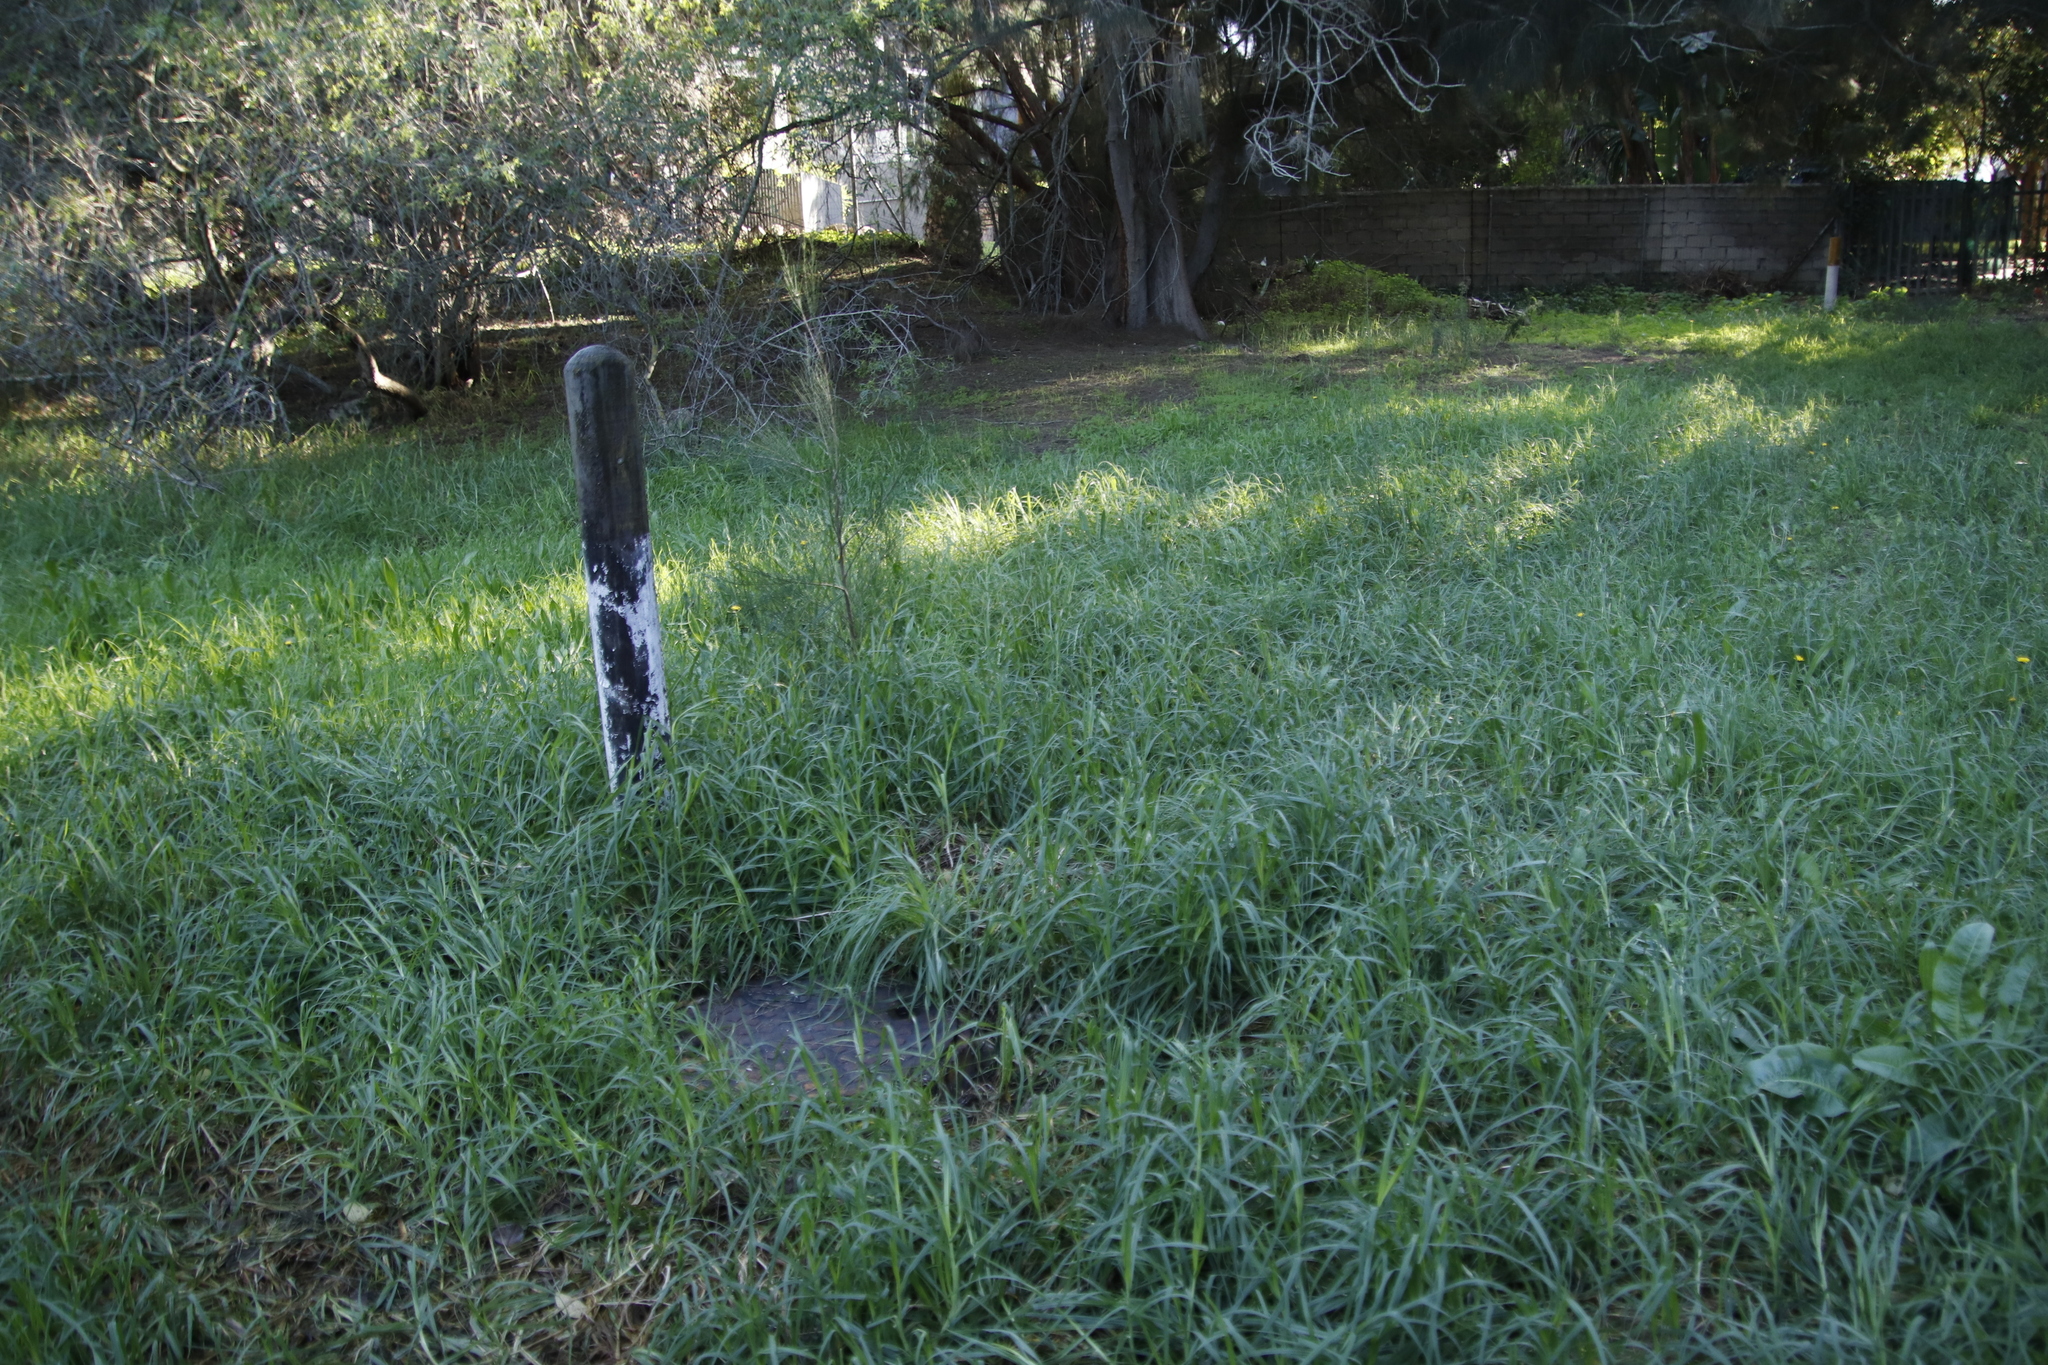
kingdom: Plantae
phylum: Tracheophyta
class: Magnoliopsida
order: Fagales
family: Casuarinaceae
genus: Casuarina
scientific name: Casuarina cunninghamiana
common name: River sheoak
